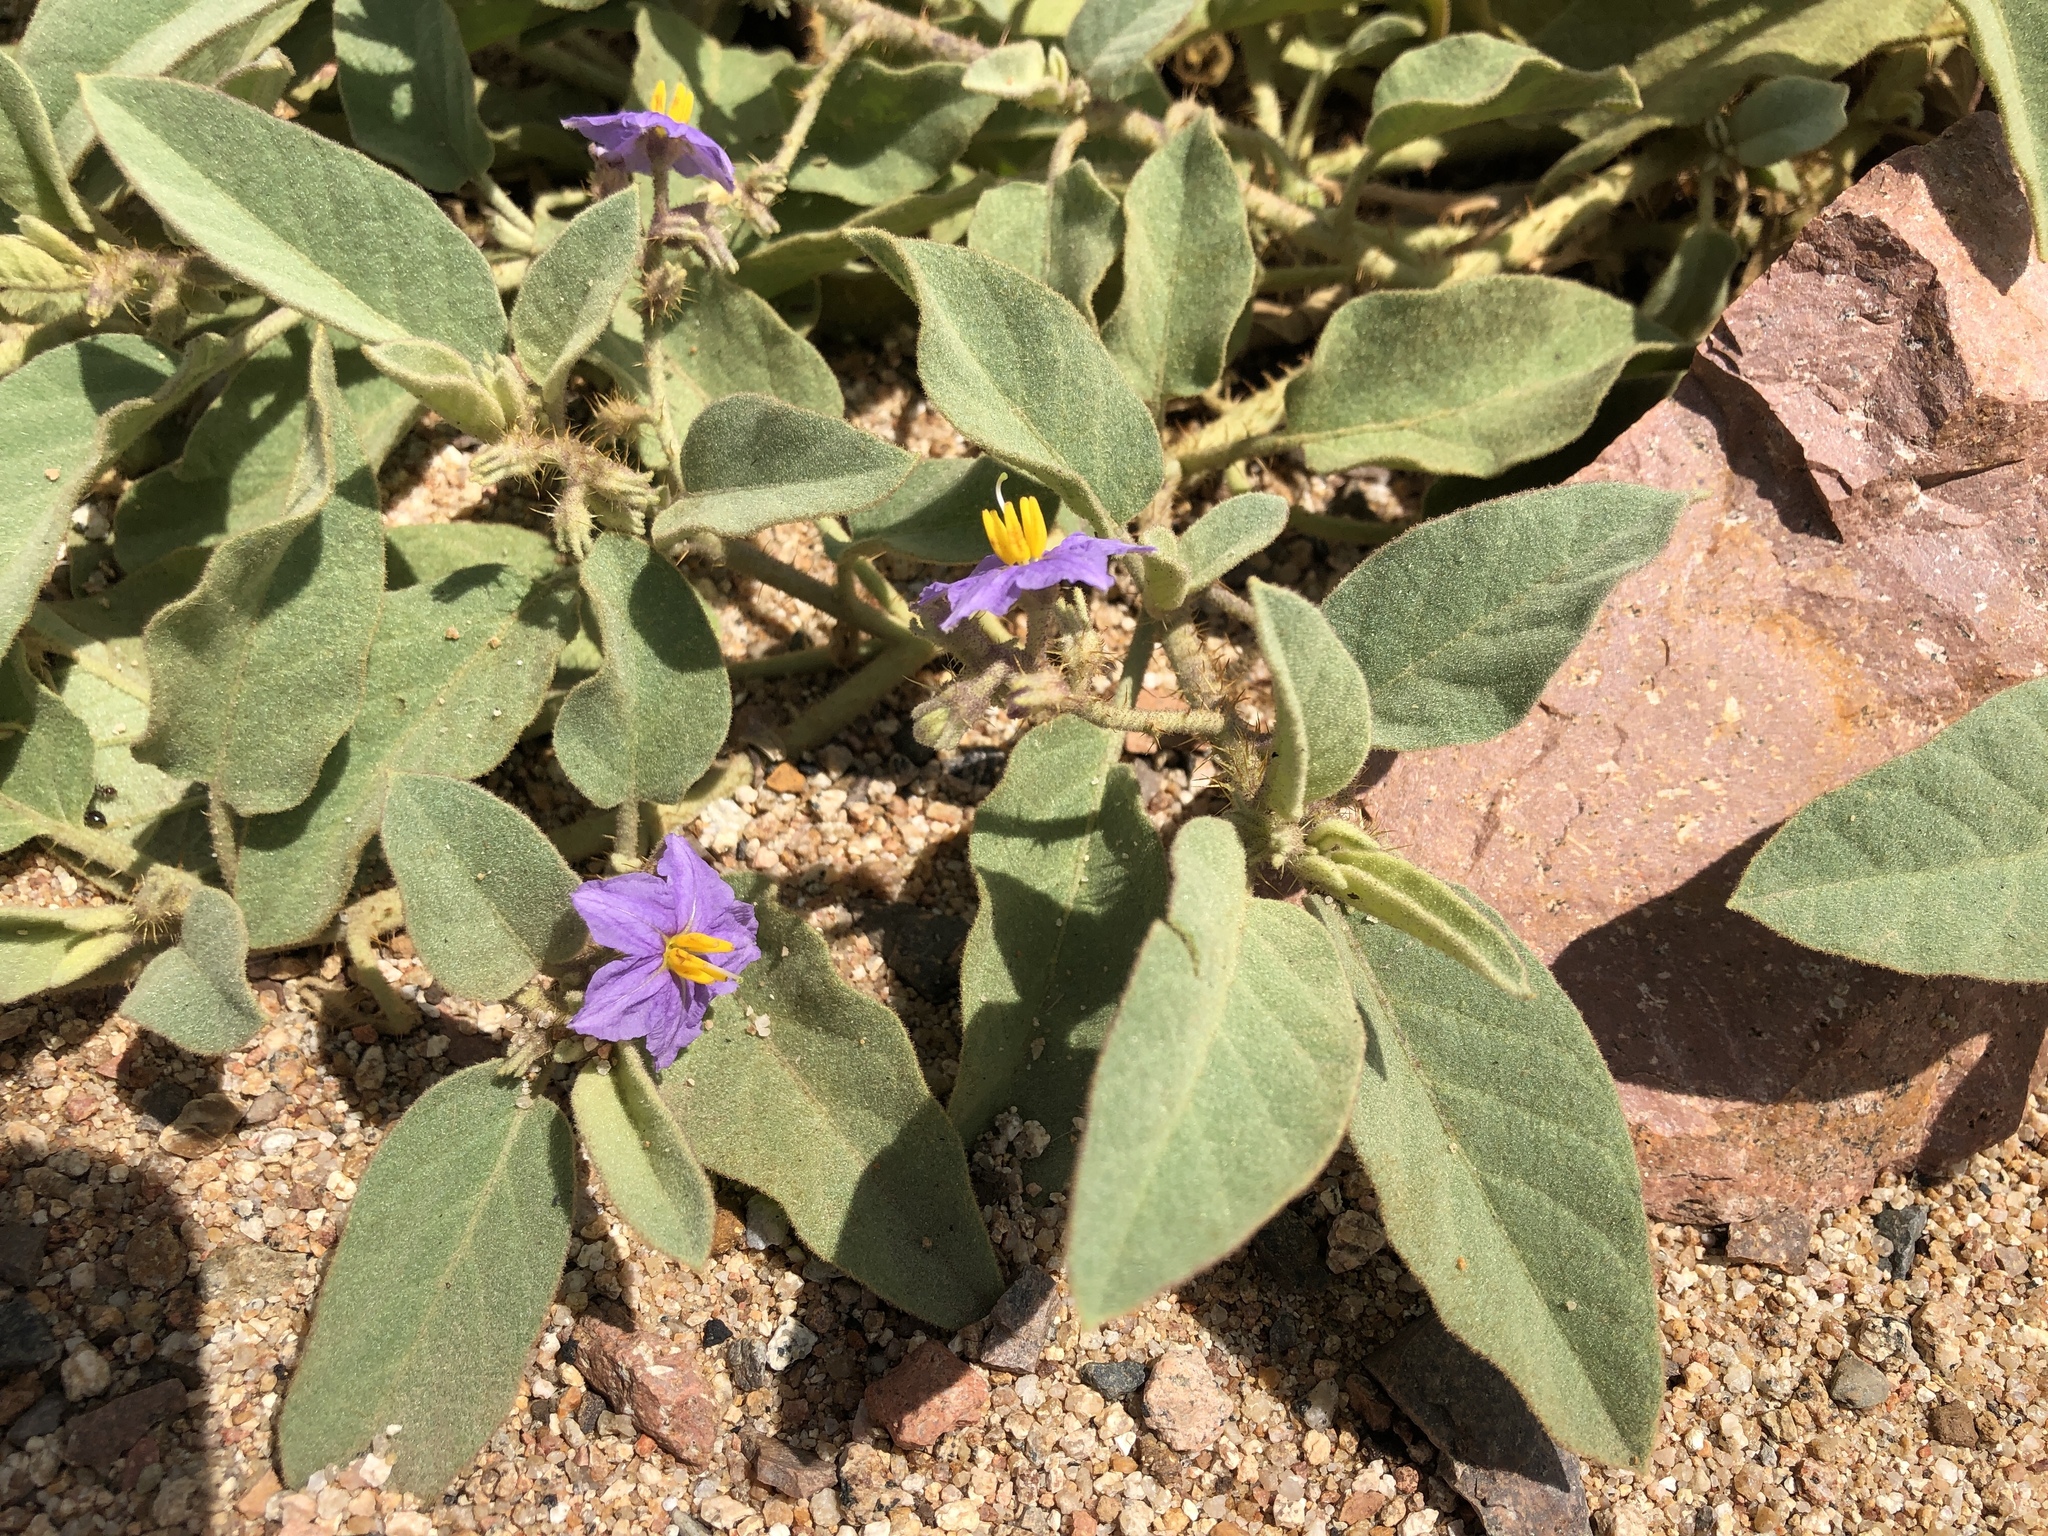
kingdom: Plantae
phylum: Tracheophyta
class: Magnoliopsida
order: Solanales
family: Solanaceae
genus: Solanum
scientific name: Solanum ellipticum
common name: Potato-bush
